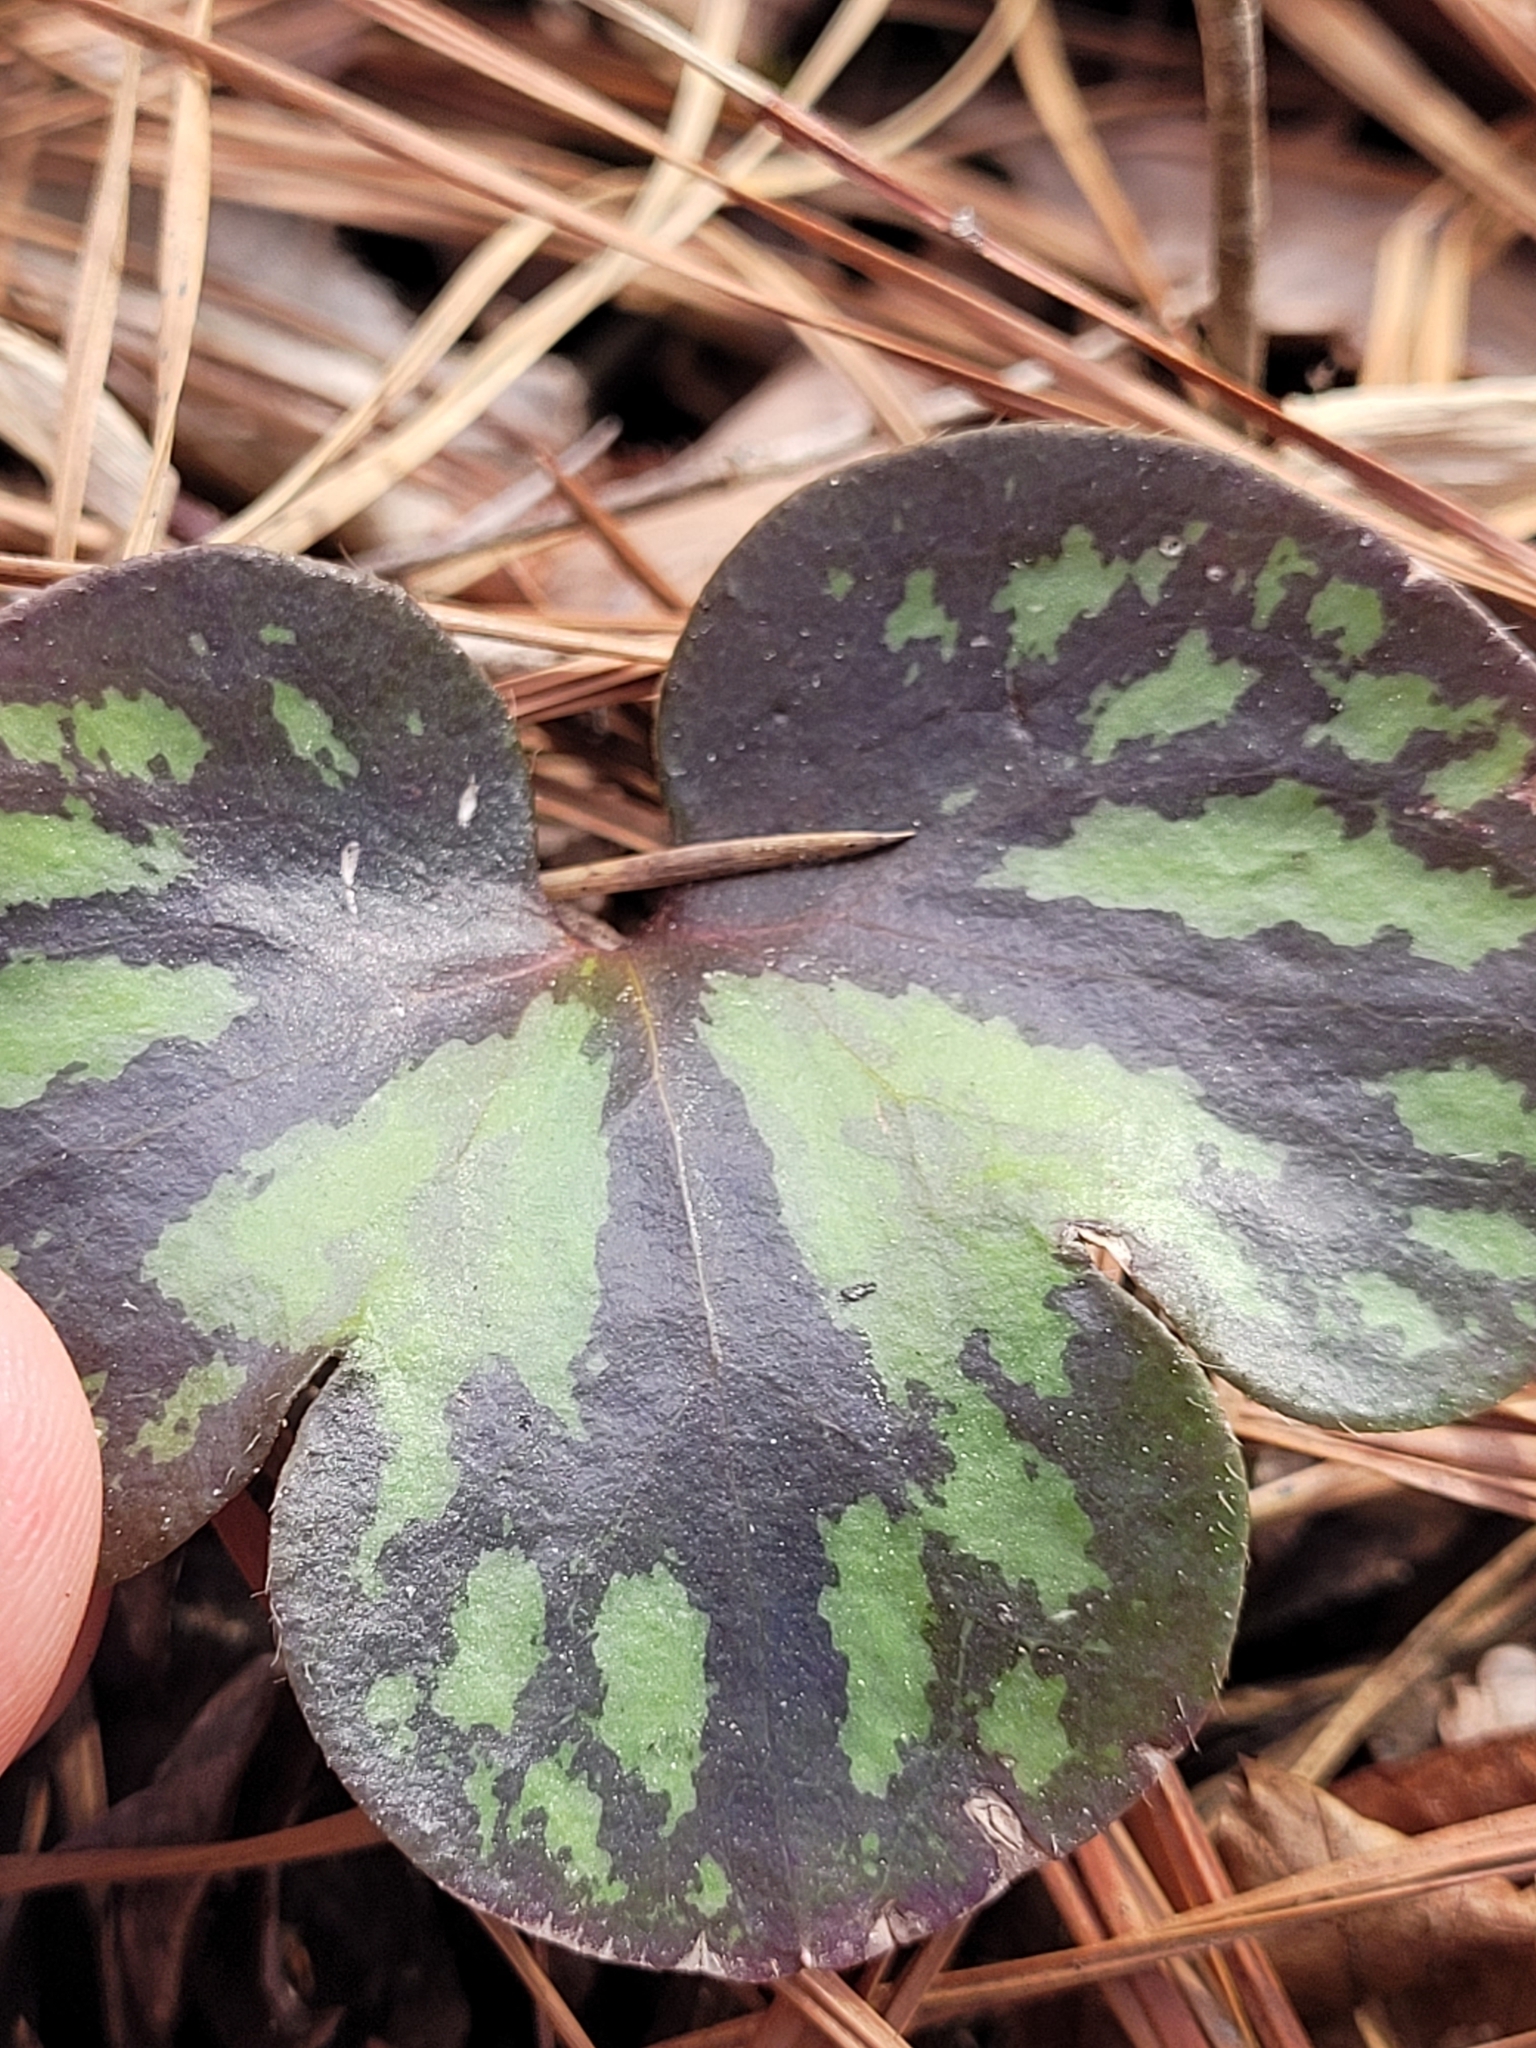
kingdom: Plantae
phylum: Tracheophyta
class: Magnoliopsida
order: Ranunculales
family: Ranunculaceae
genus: Hepatica
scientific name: Hepatica americana
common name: American hepatica
